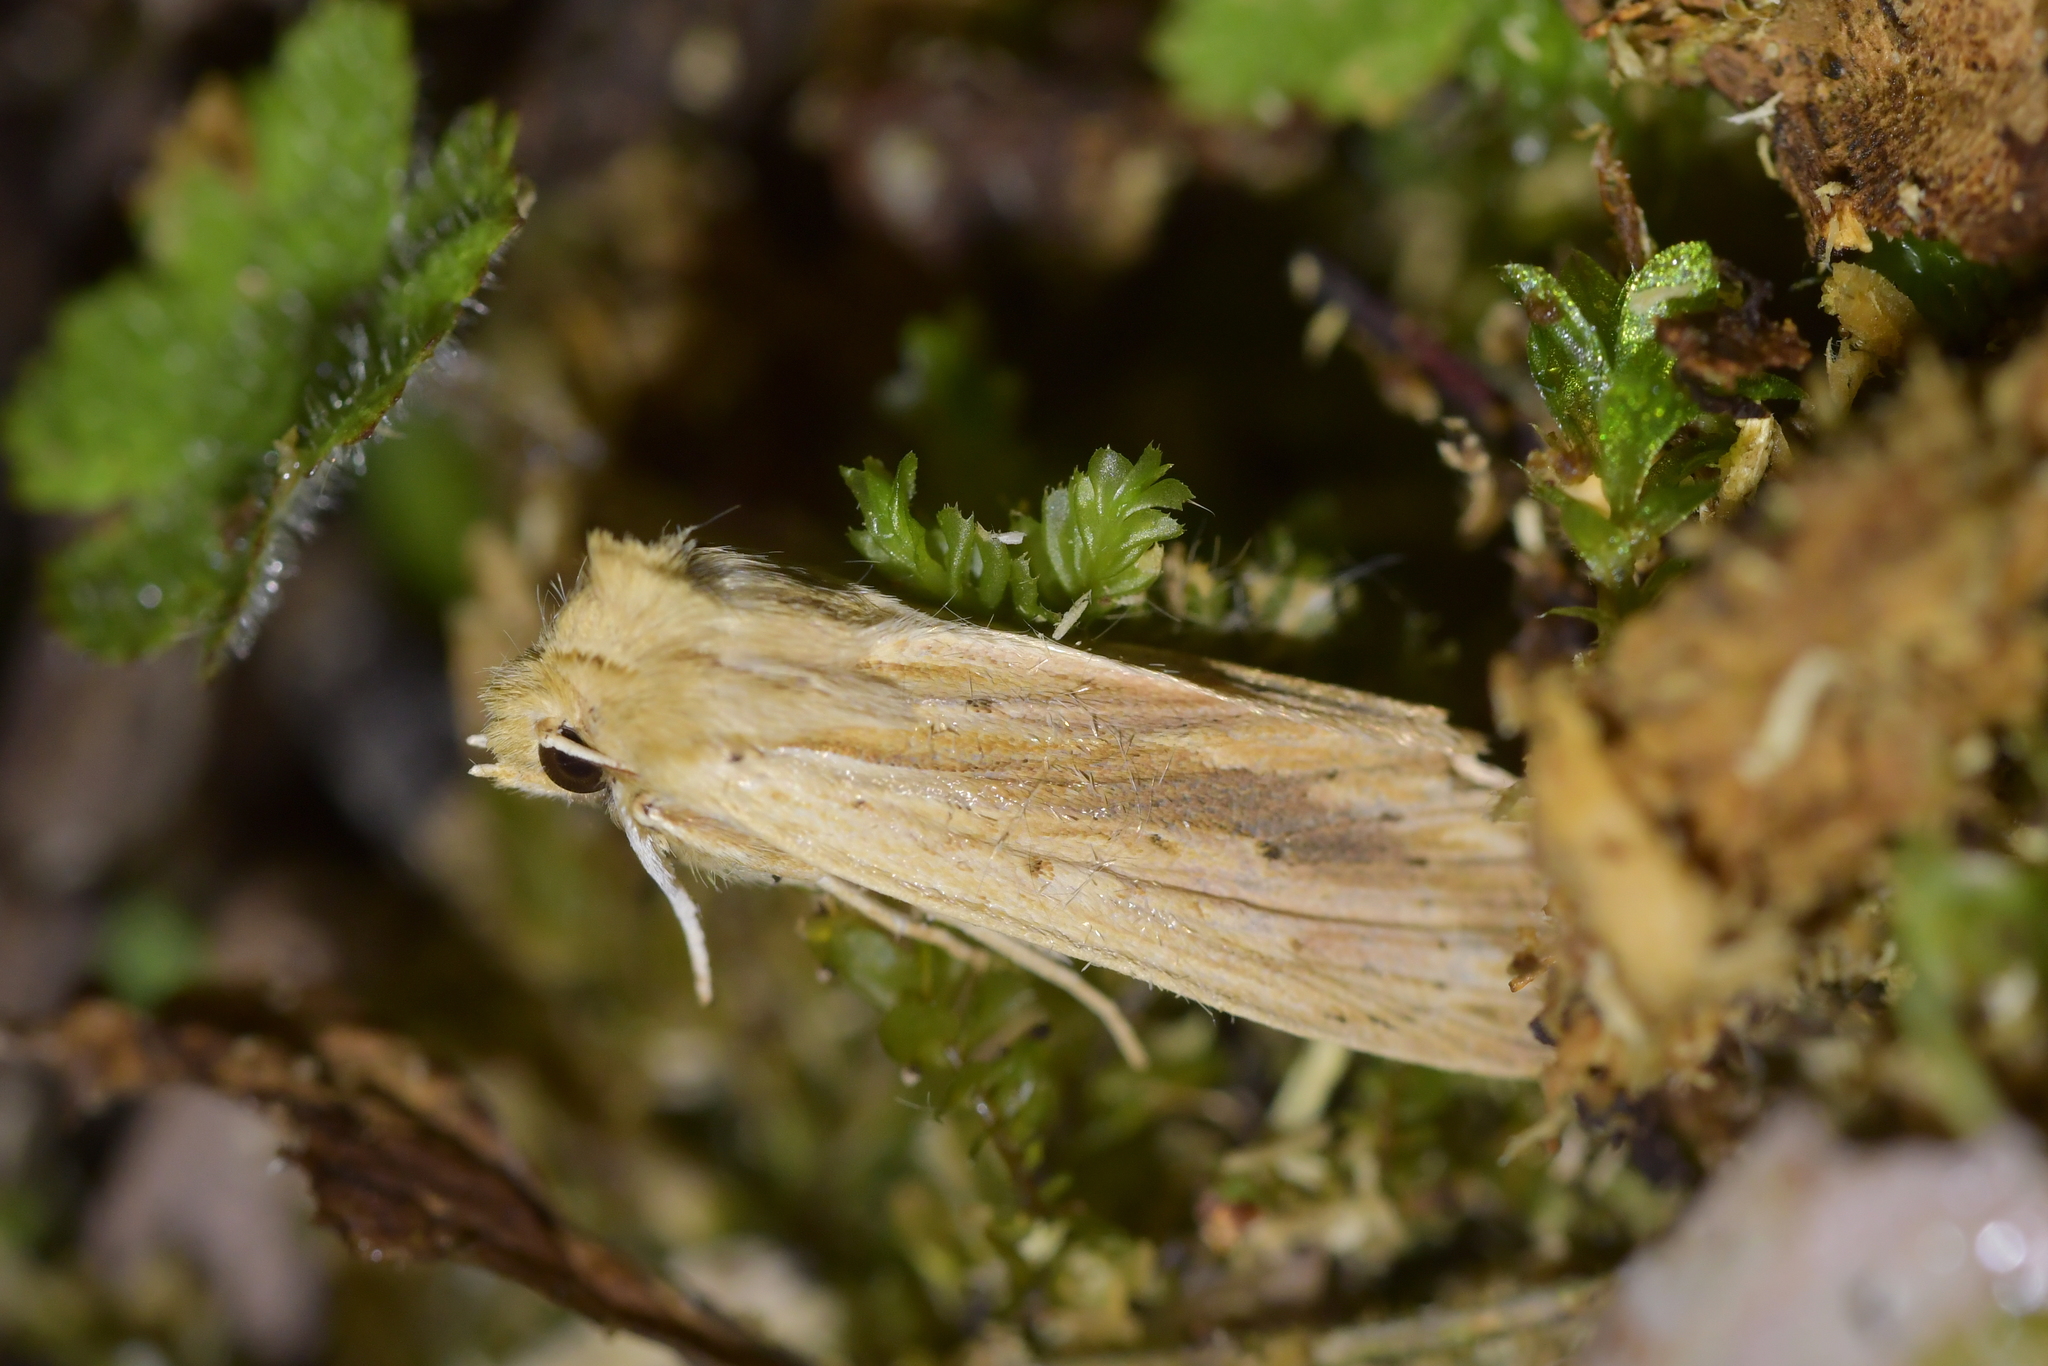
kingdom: Animalia
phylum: Arthropoda
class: Insecta
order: Lepidoptera
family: Noctuidae
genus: Ichneutica
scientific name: Ichneutica semivittata
